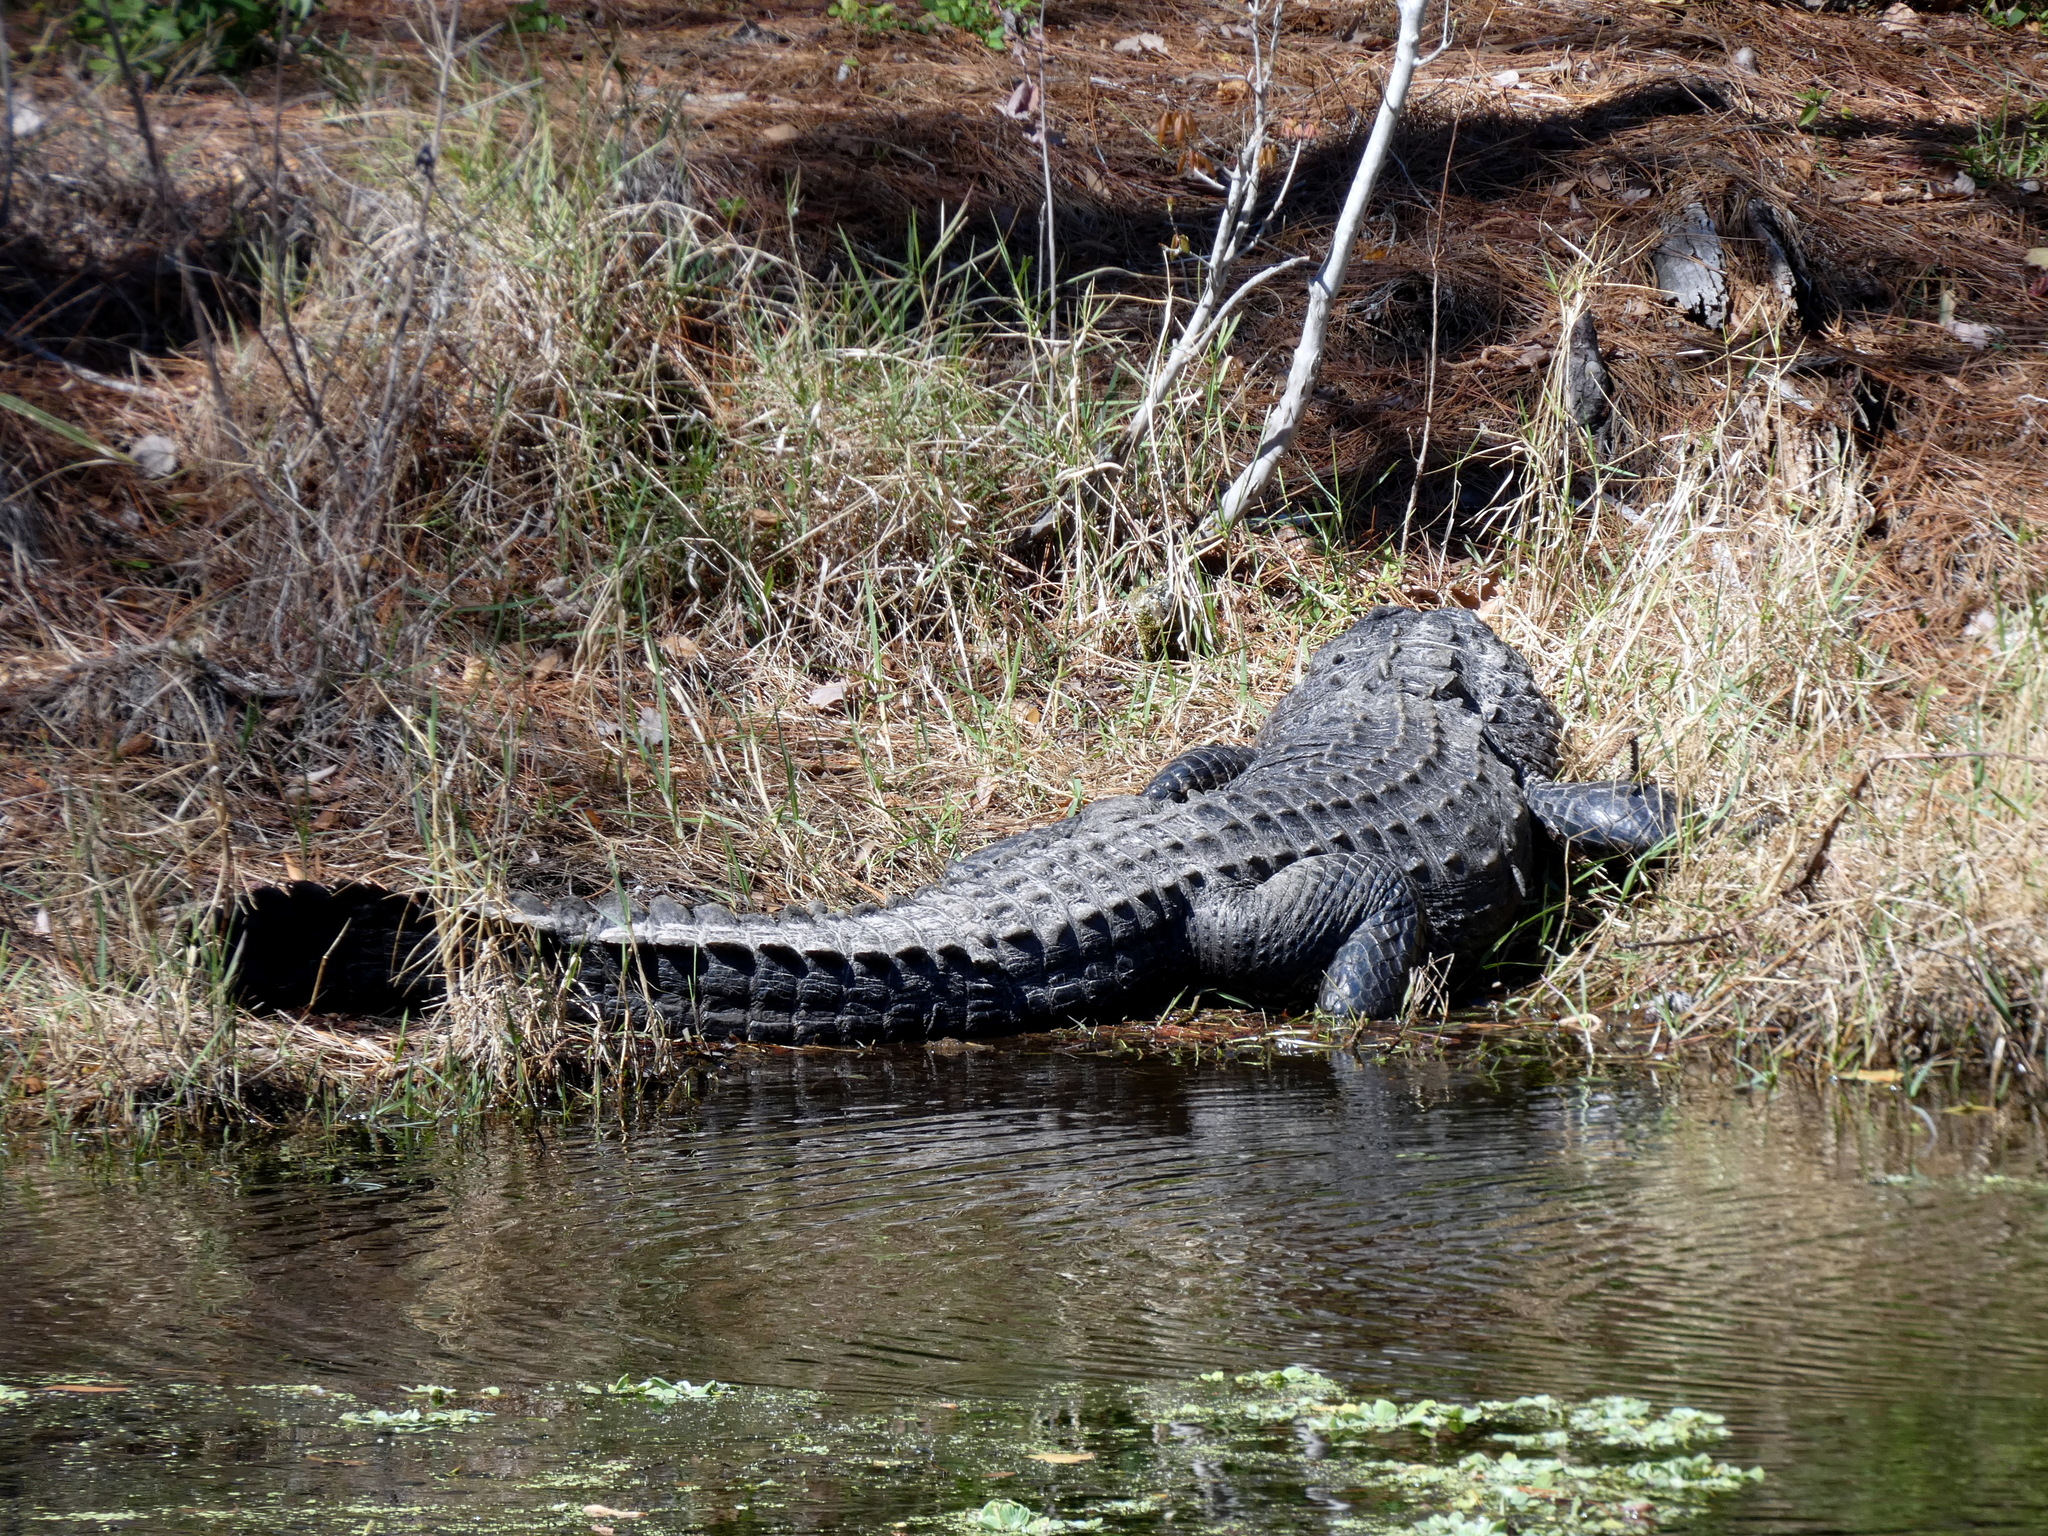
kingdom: Animalia
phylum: Chordata
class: Crocodylia
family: Alligatoridae
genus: Alligator
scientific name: Alligator mississippiensis
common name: American alligator
